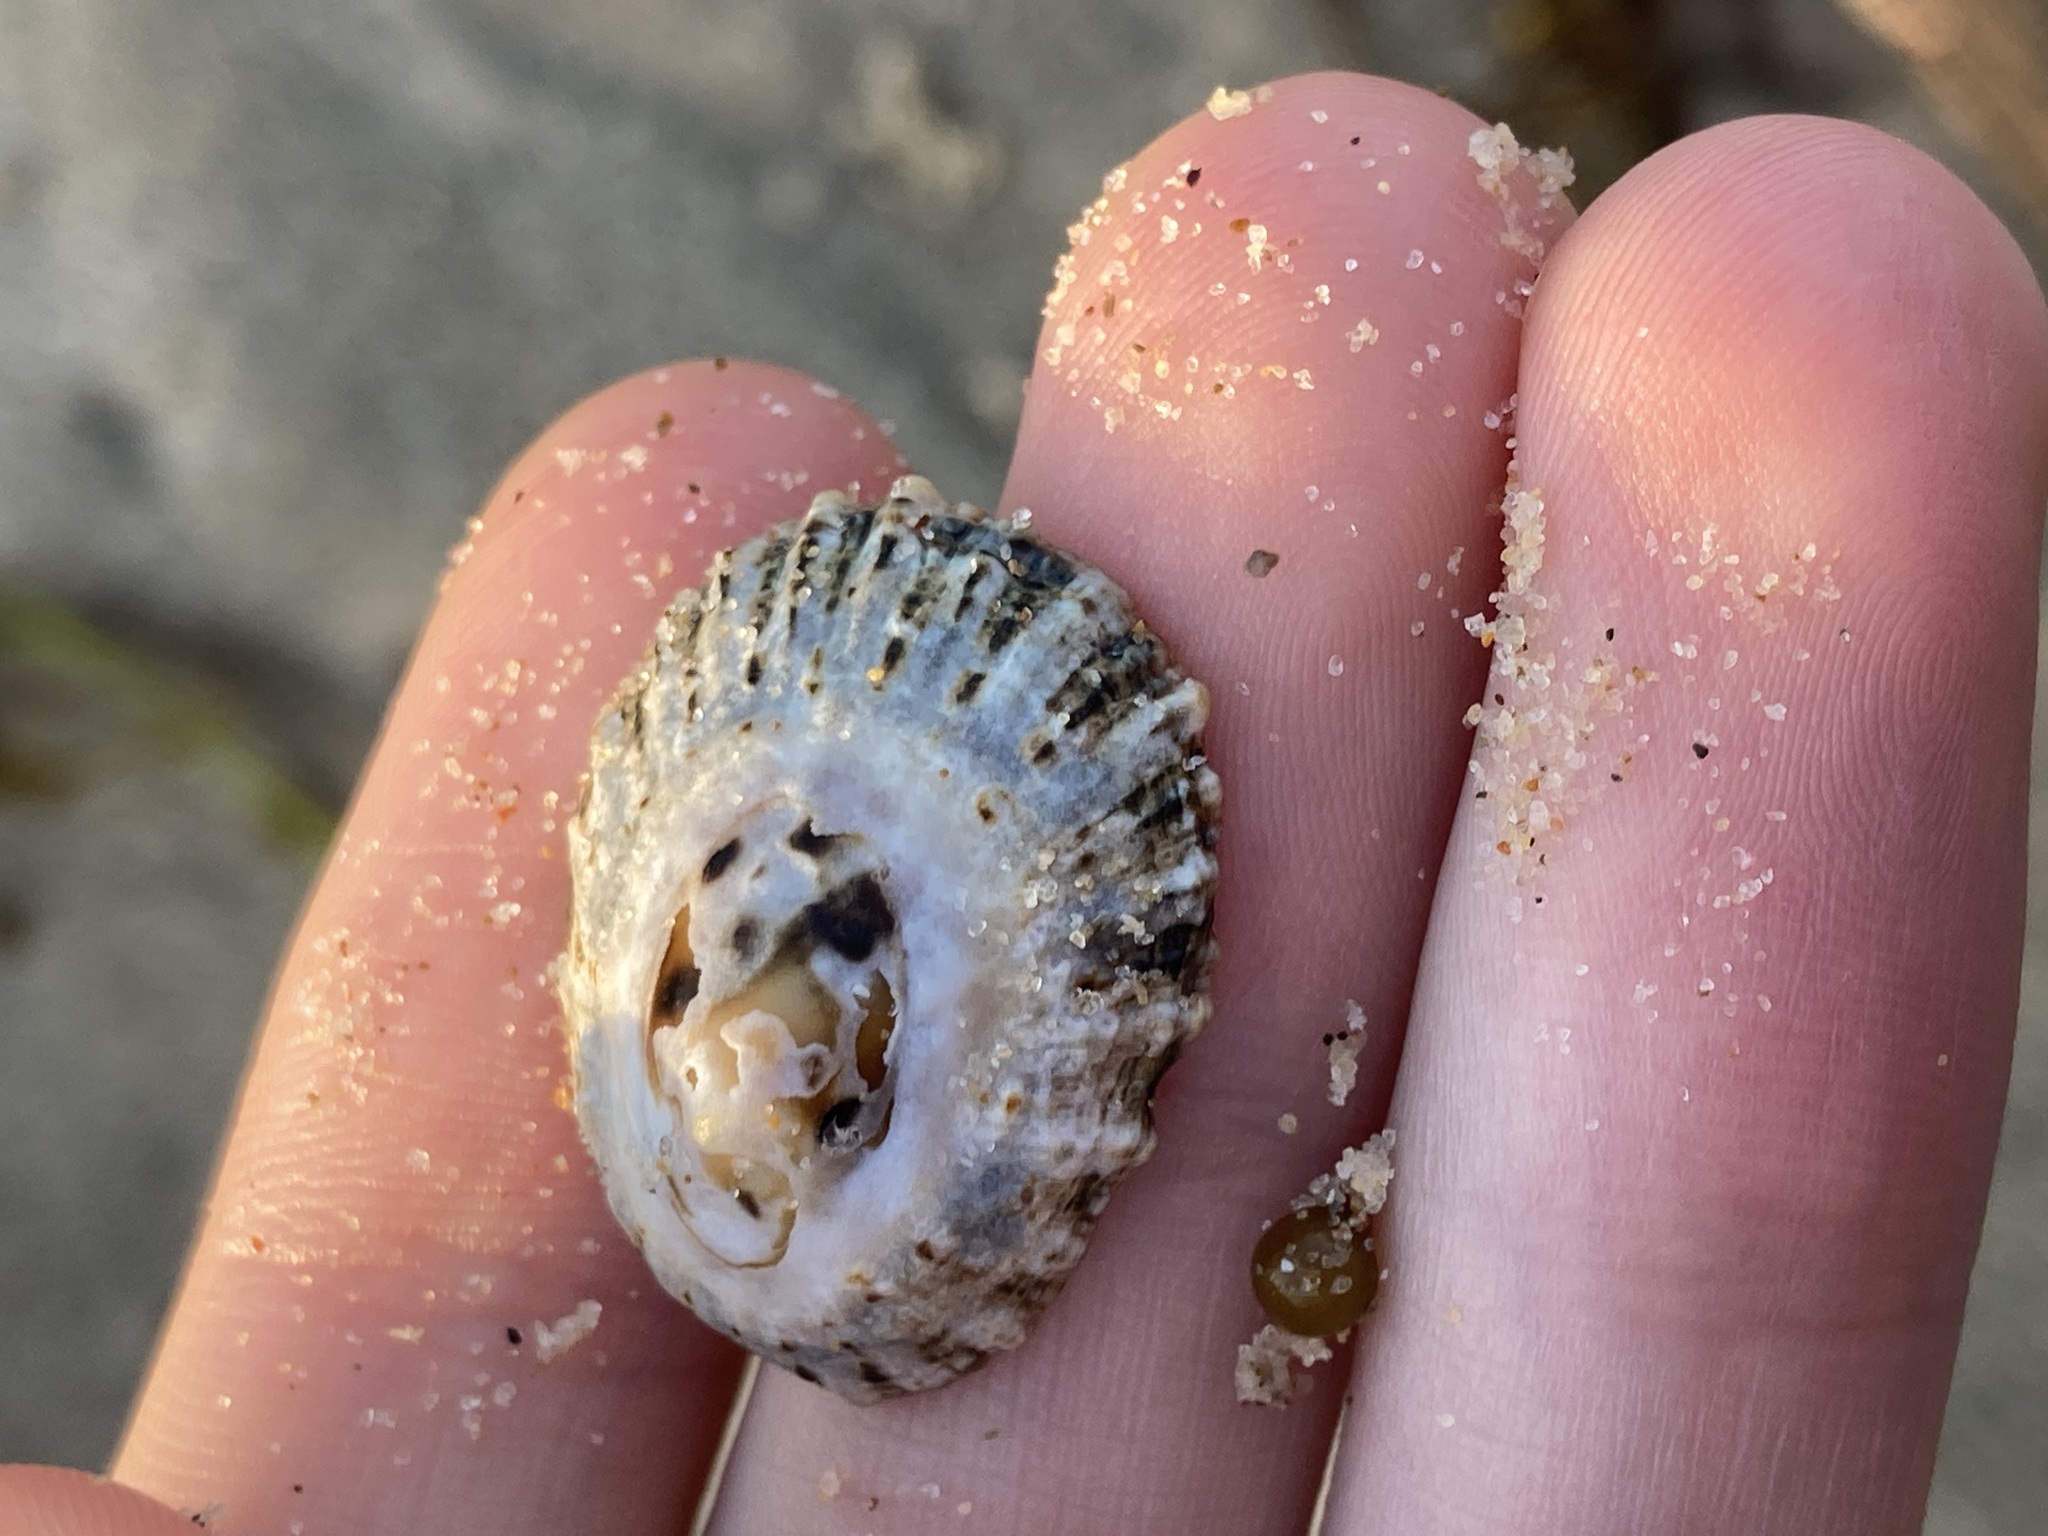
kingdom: Animalia
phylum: Mollusca
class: Gastropoda
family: Patellidae
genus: Scutellastra
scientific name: Scutellastra peronii
